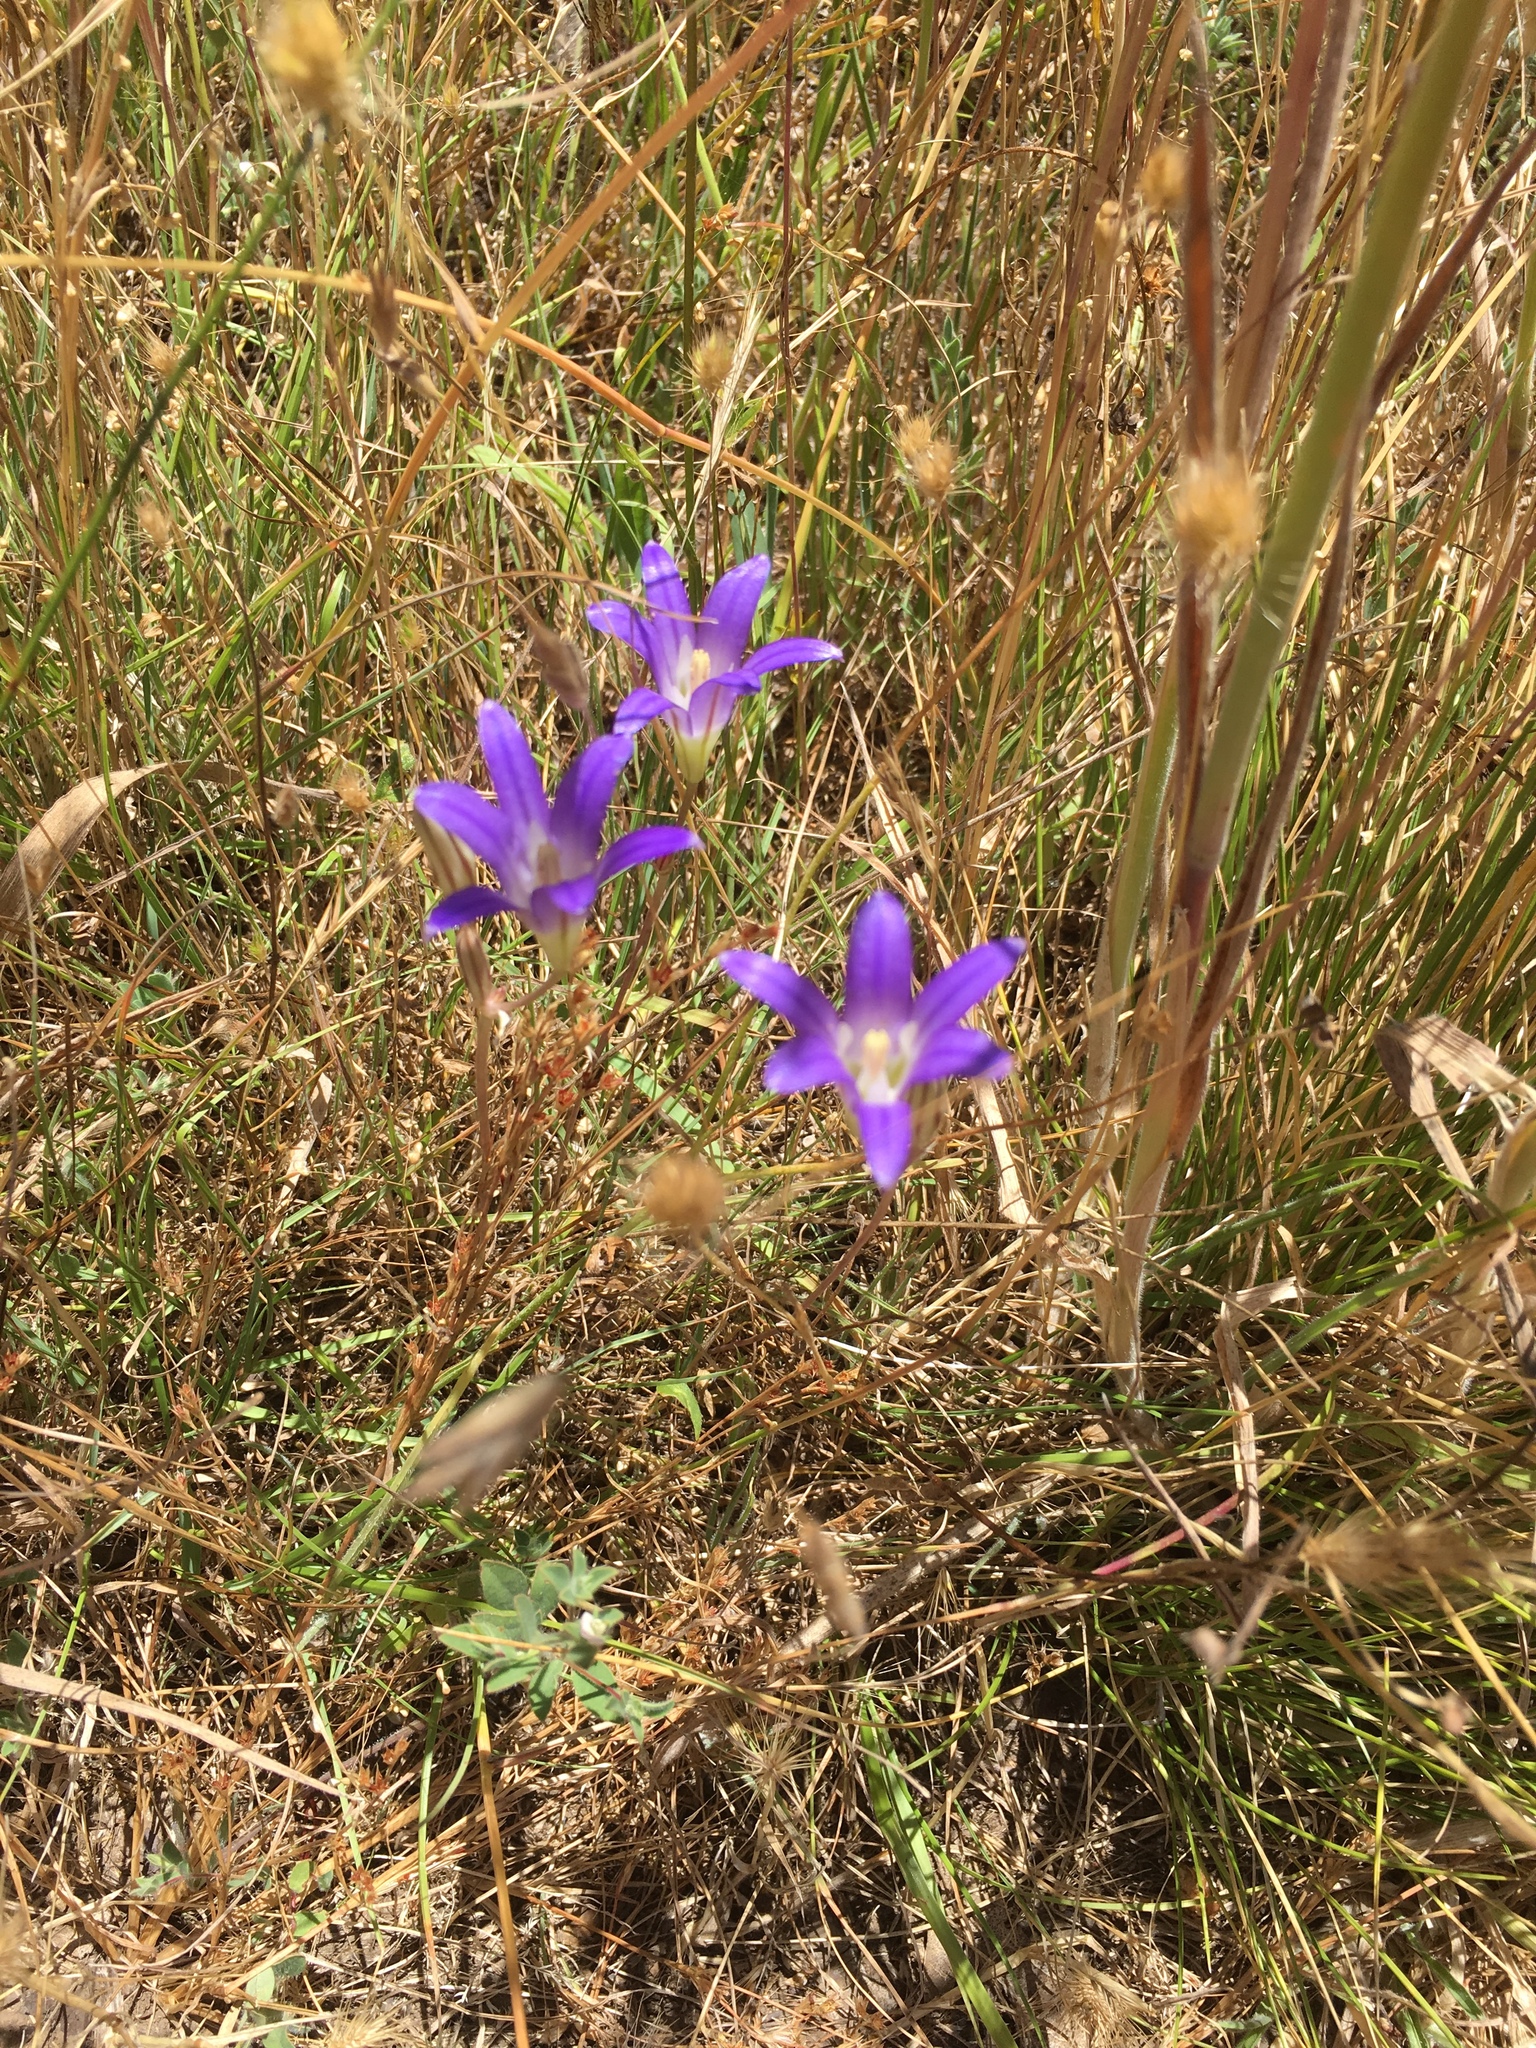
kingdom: Plantae
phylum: Tracheophyta
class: Liliopsida
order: Asparagales
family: Asparagaceae
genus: Brodiaea
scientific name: Brodiaea elegans
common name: Elegant cluster-lily
